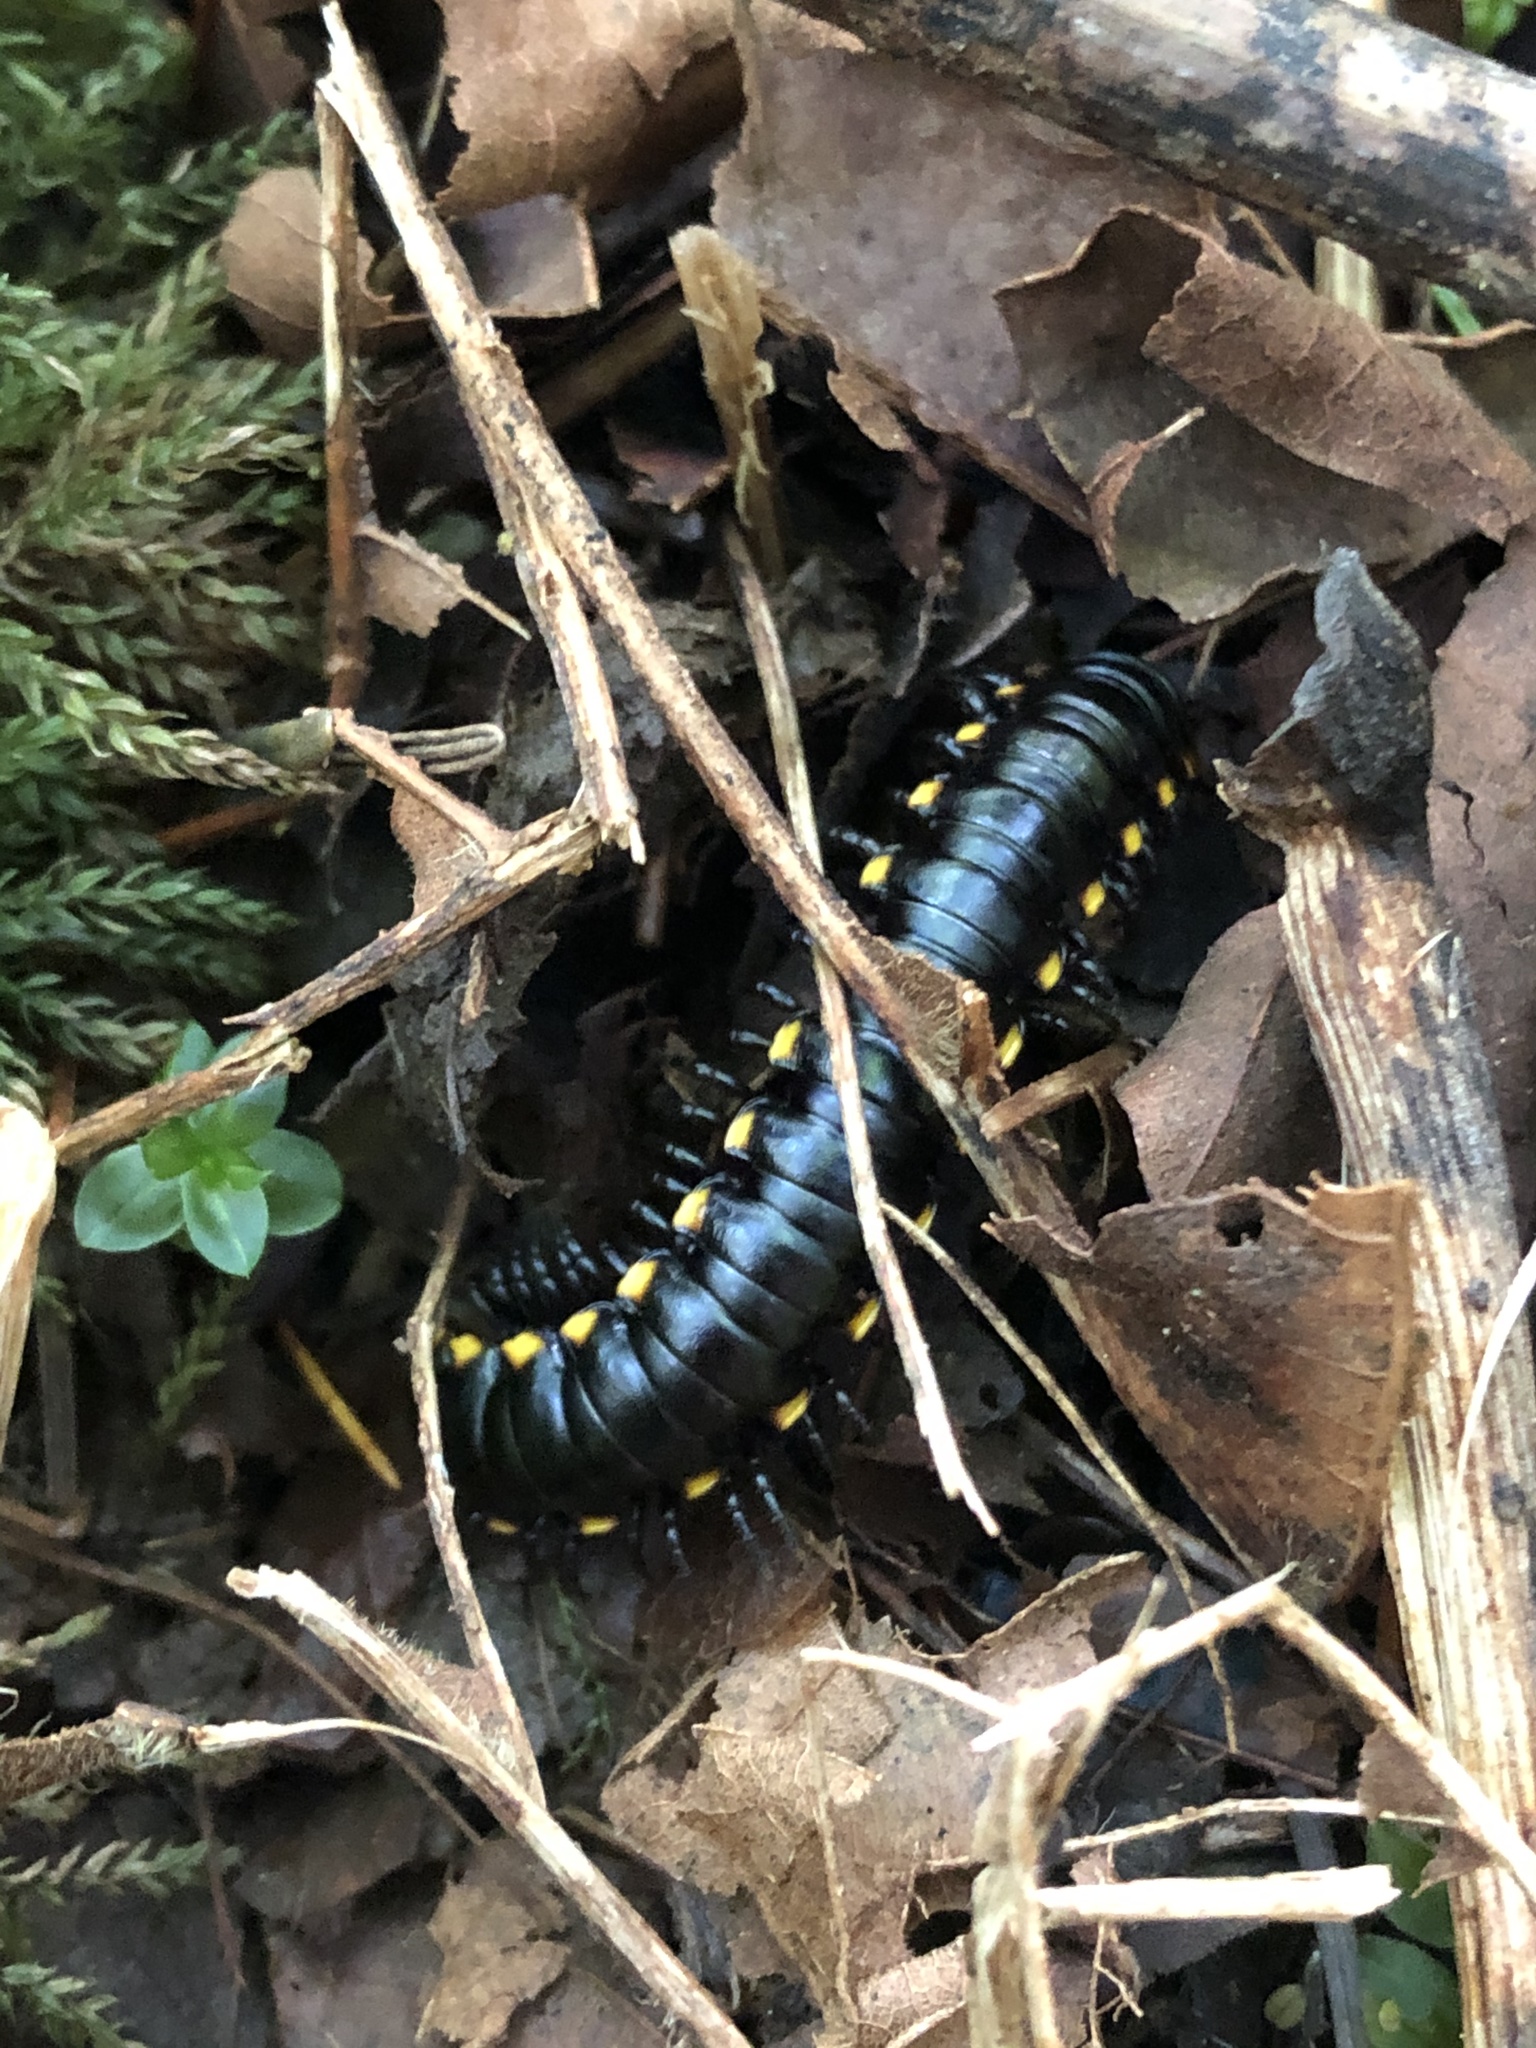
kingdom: Animalia
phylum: Arthropoda
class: Diplopoda
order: Polydesmida
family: Xystodesmidae
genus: Harpaphe
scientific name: Harpaphe haydeniana
